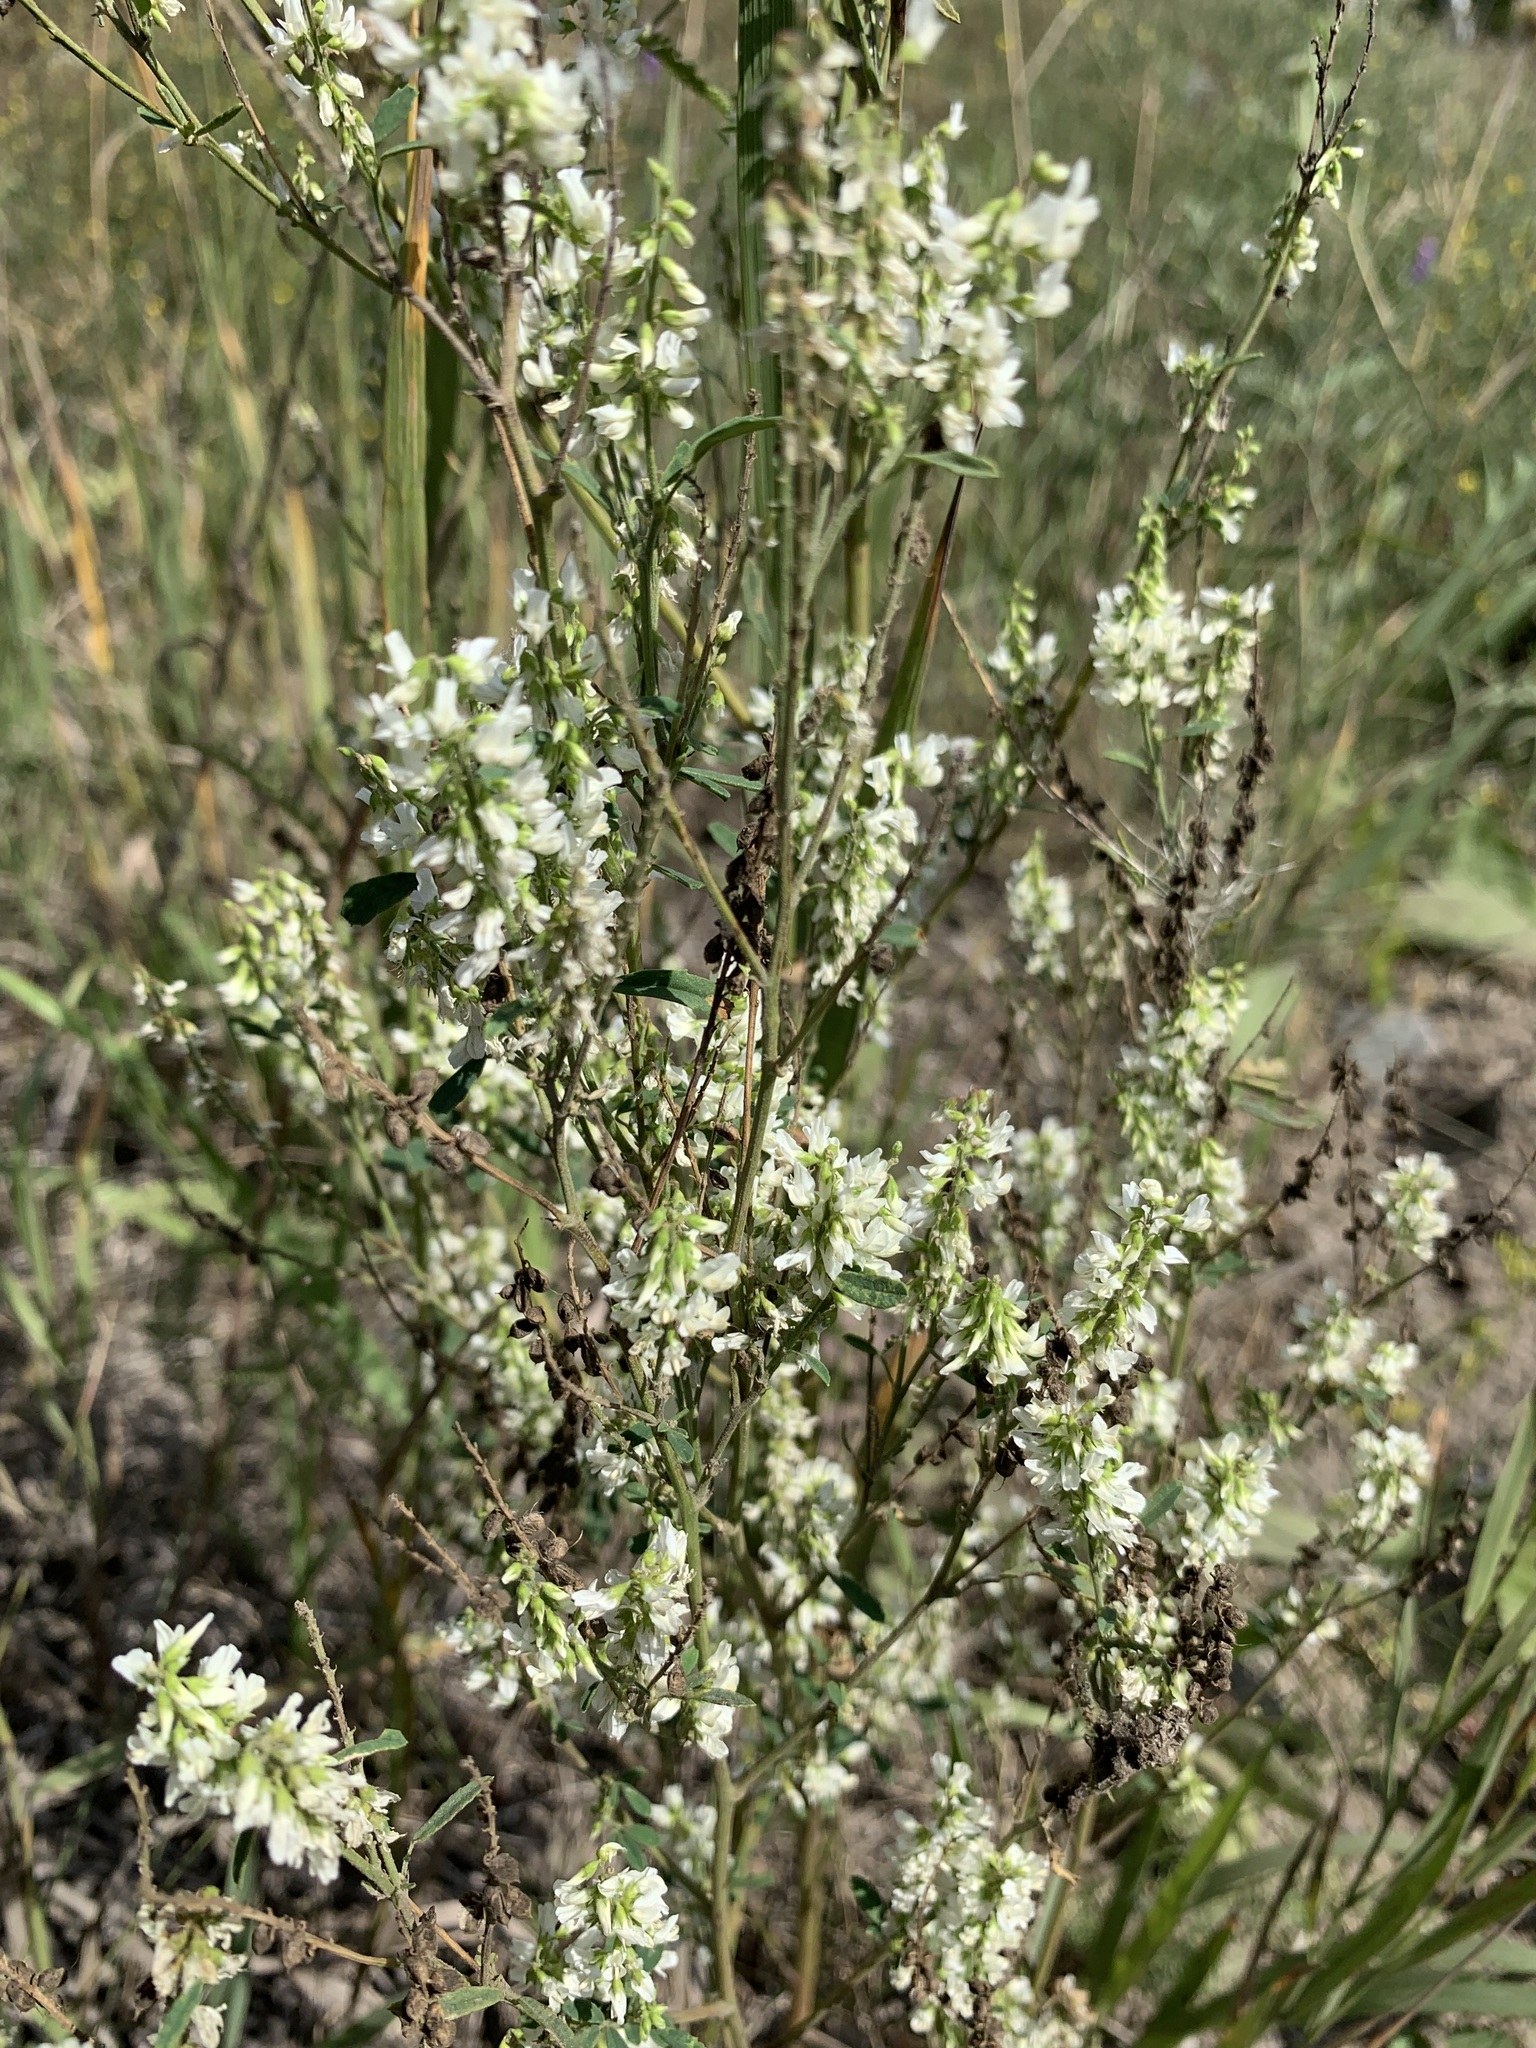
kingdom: Plantae
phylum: Tracheophyta
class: Magnoliopsida
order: Fabales
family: Fabaceae
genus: Melilotus
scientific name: Melilotus albus
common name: White melilot
